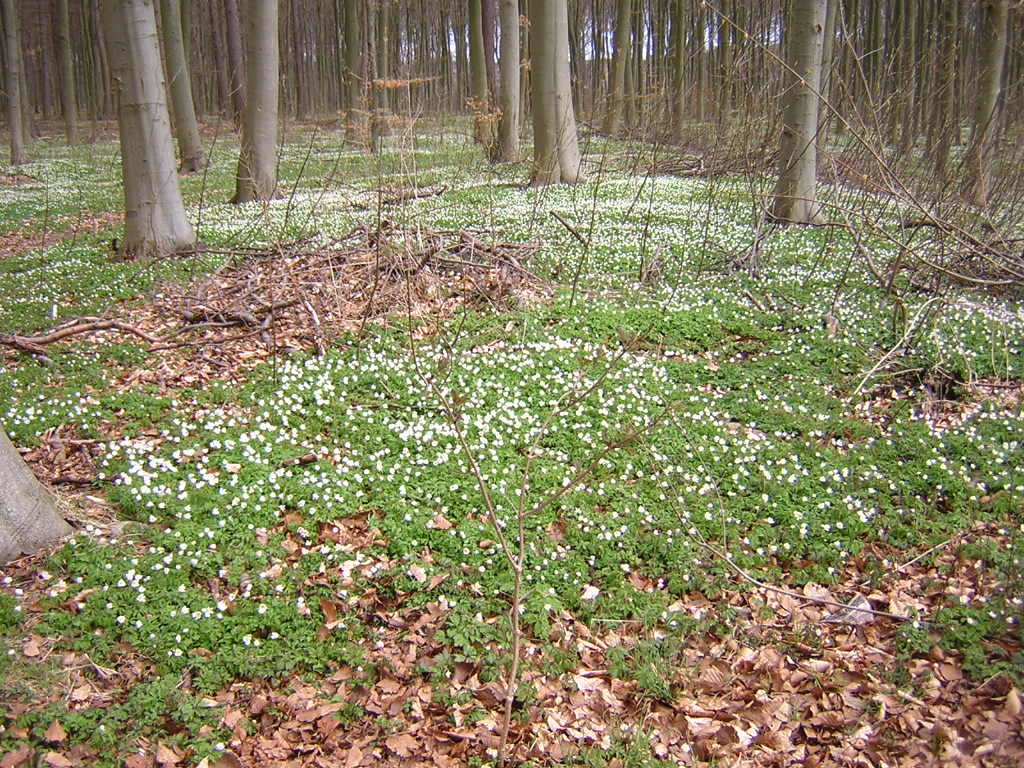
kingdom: Plantae
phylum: Tracheophyta
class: Magnoliopsida
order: Ranunculales
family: Ranunculaceae
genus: Anemone
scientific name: Anemone nemorosa
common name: Wood anemone
